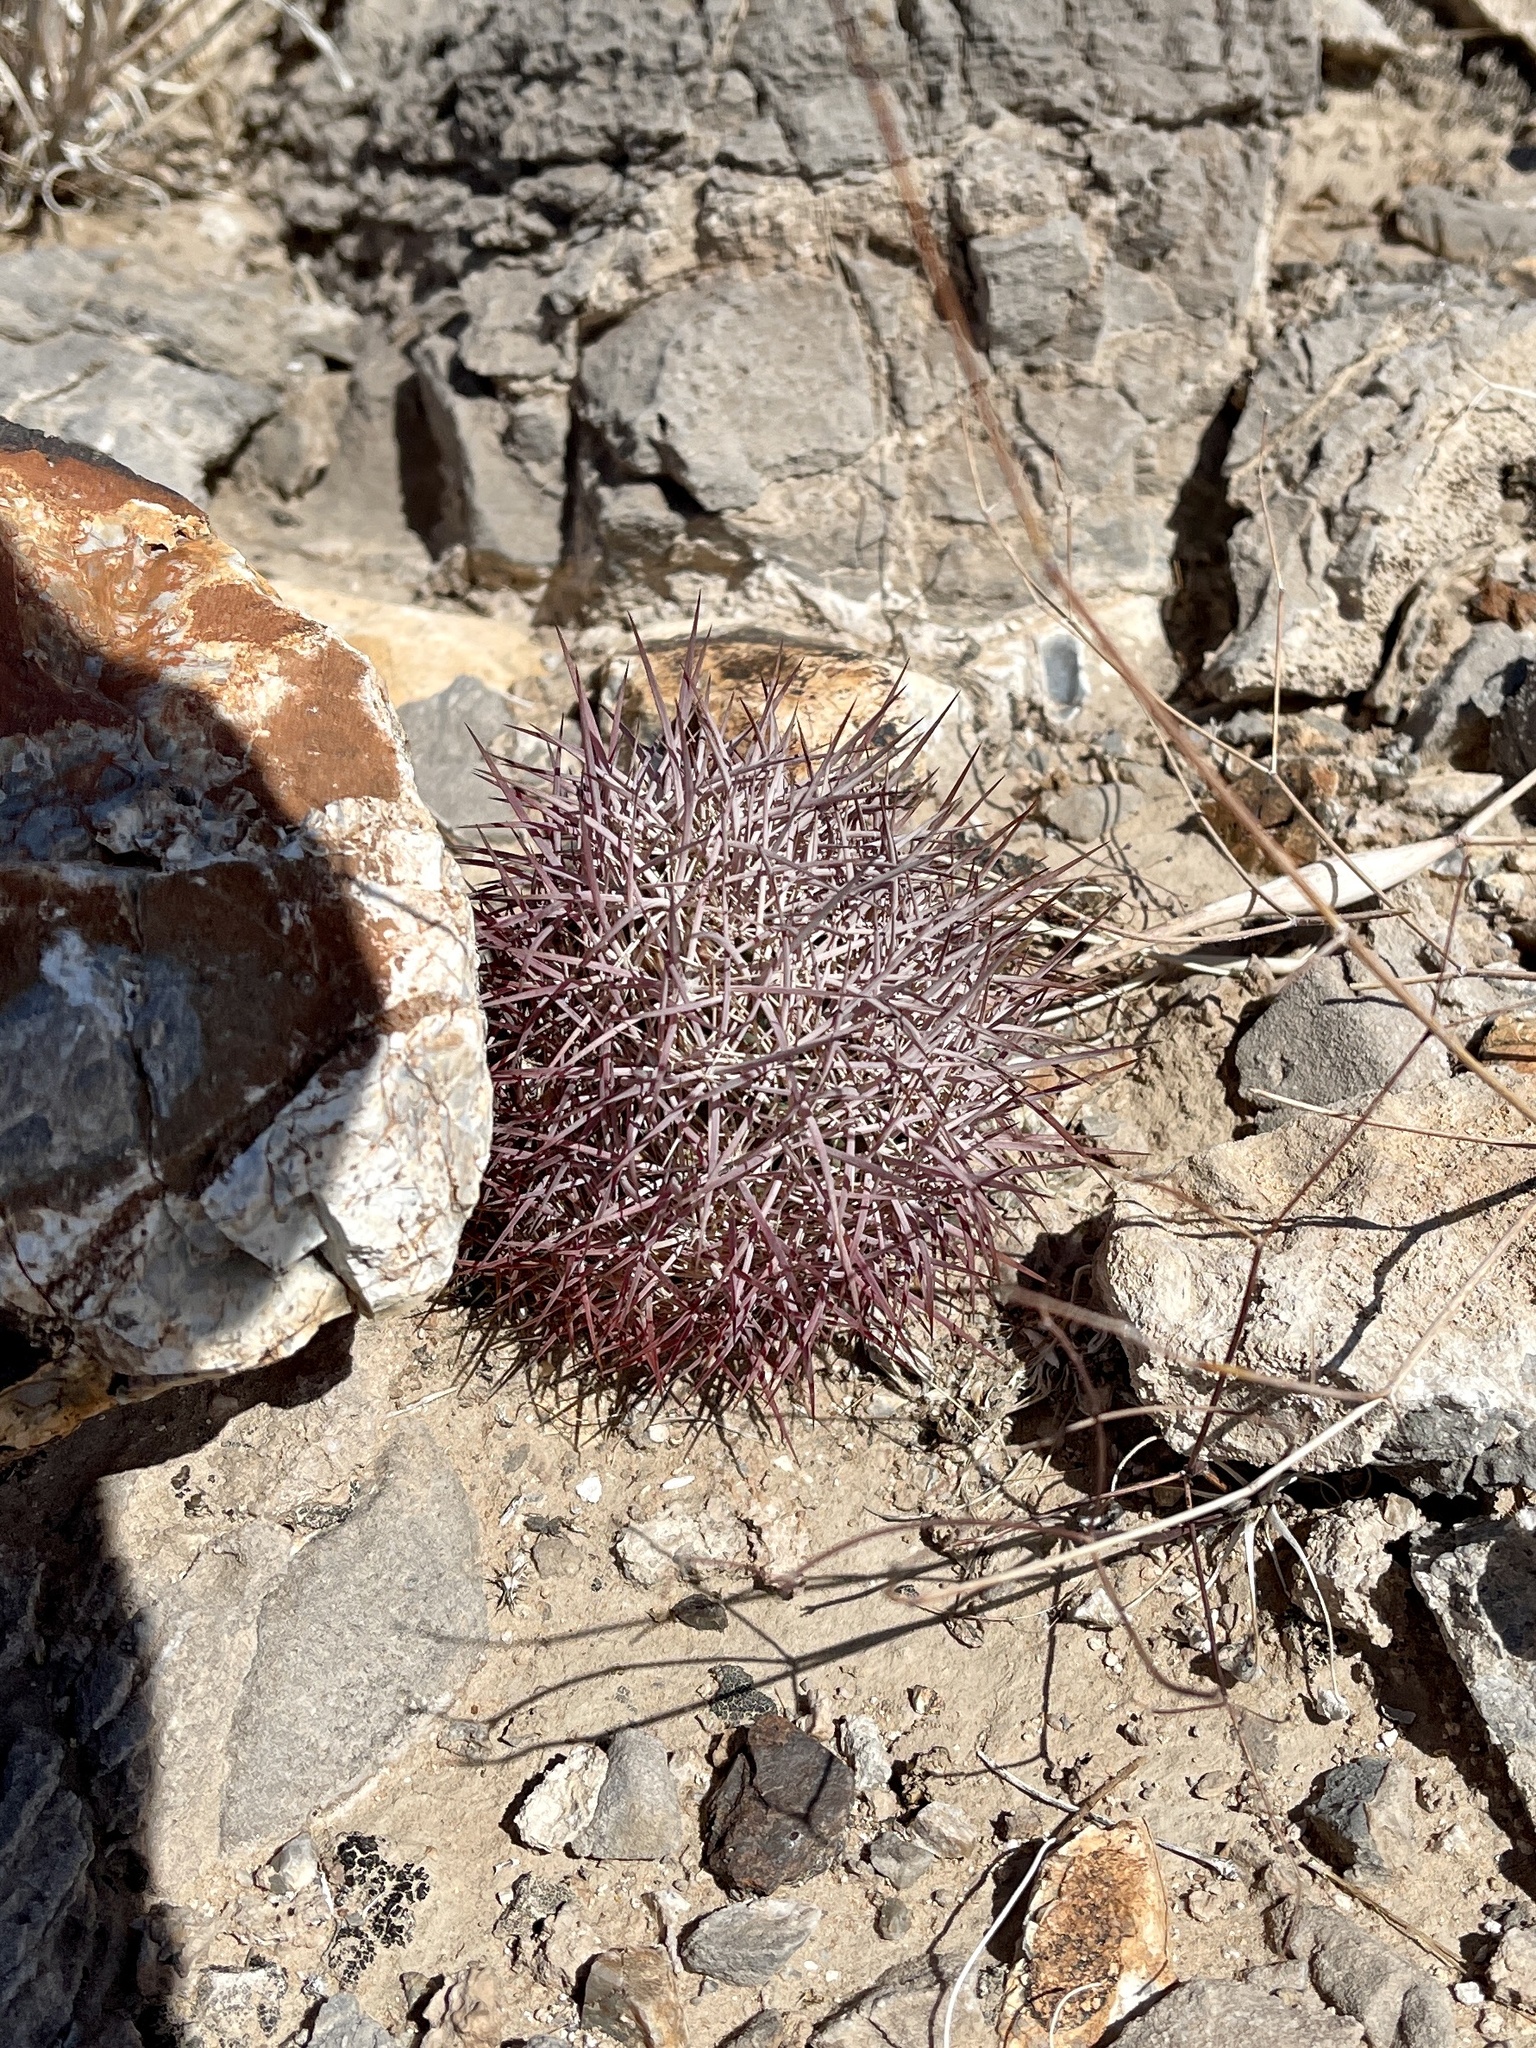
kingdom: Plantae
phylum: Tracheophyta
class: Magnoliopsida
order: Caryophyllales
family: Cactaceae
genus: Sclerocactus
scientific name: Sclerocactus johnsonii
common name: Eight-spine fishhook cactus
